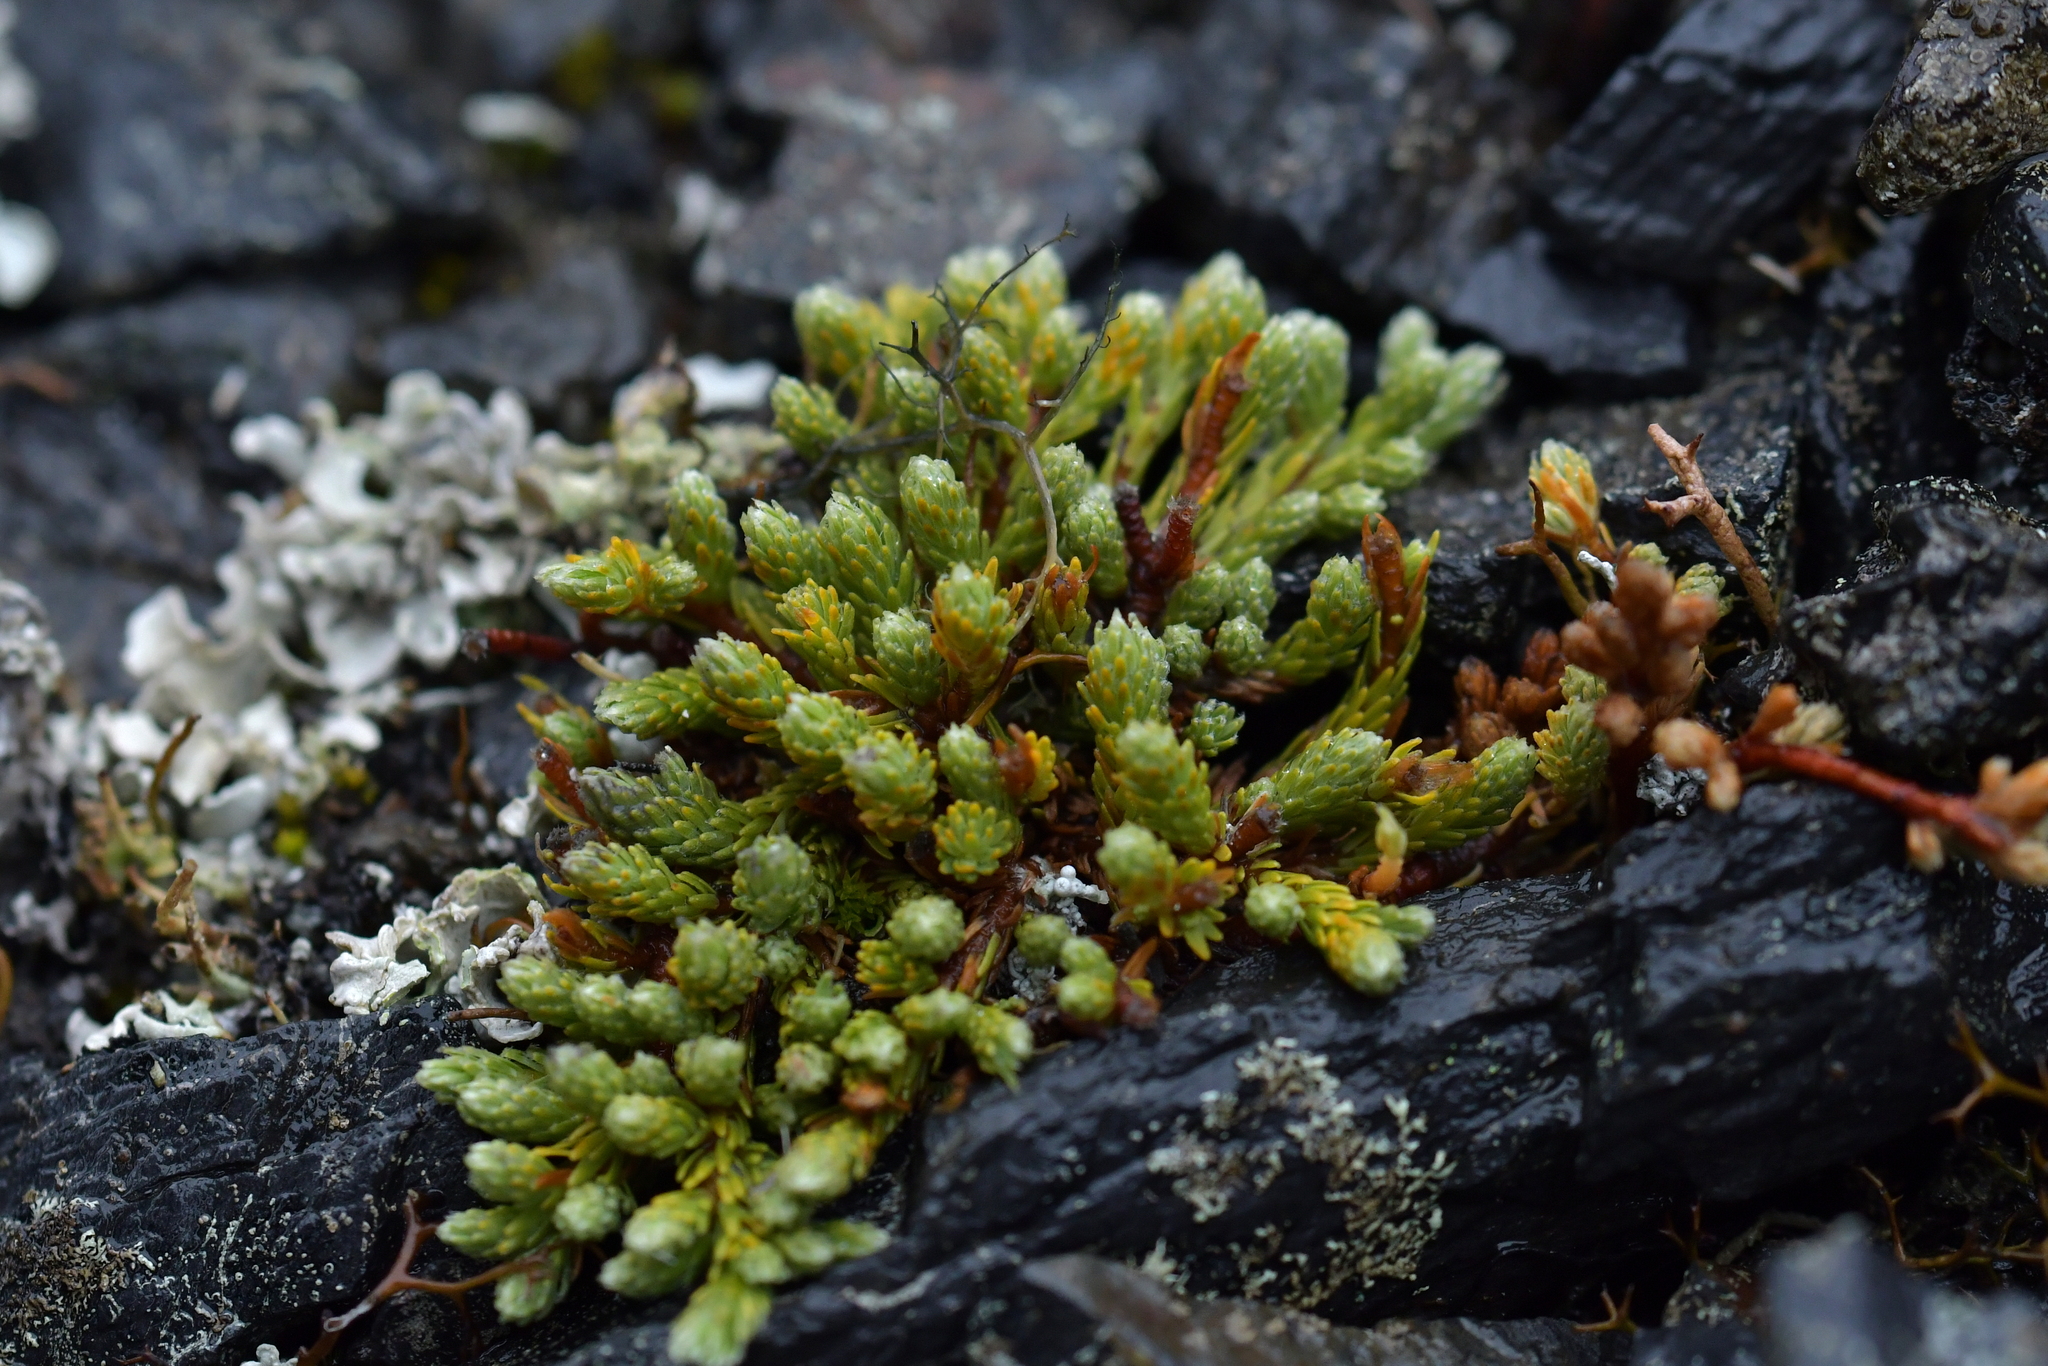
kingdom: Plantae
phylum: Tracheophyta
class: Magnoliopsida
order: Malvales
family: Thymelaeaceae
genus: Kelleria
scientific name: Kelleria dieffenbachii
